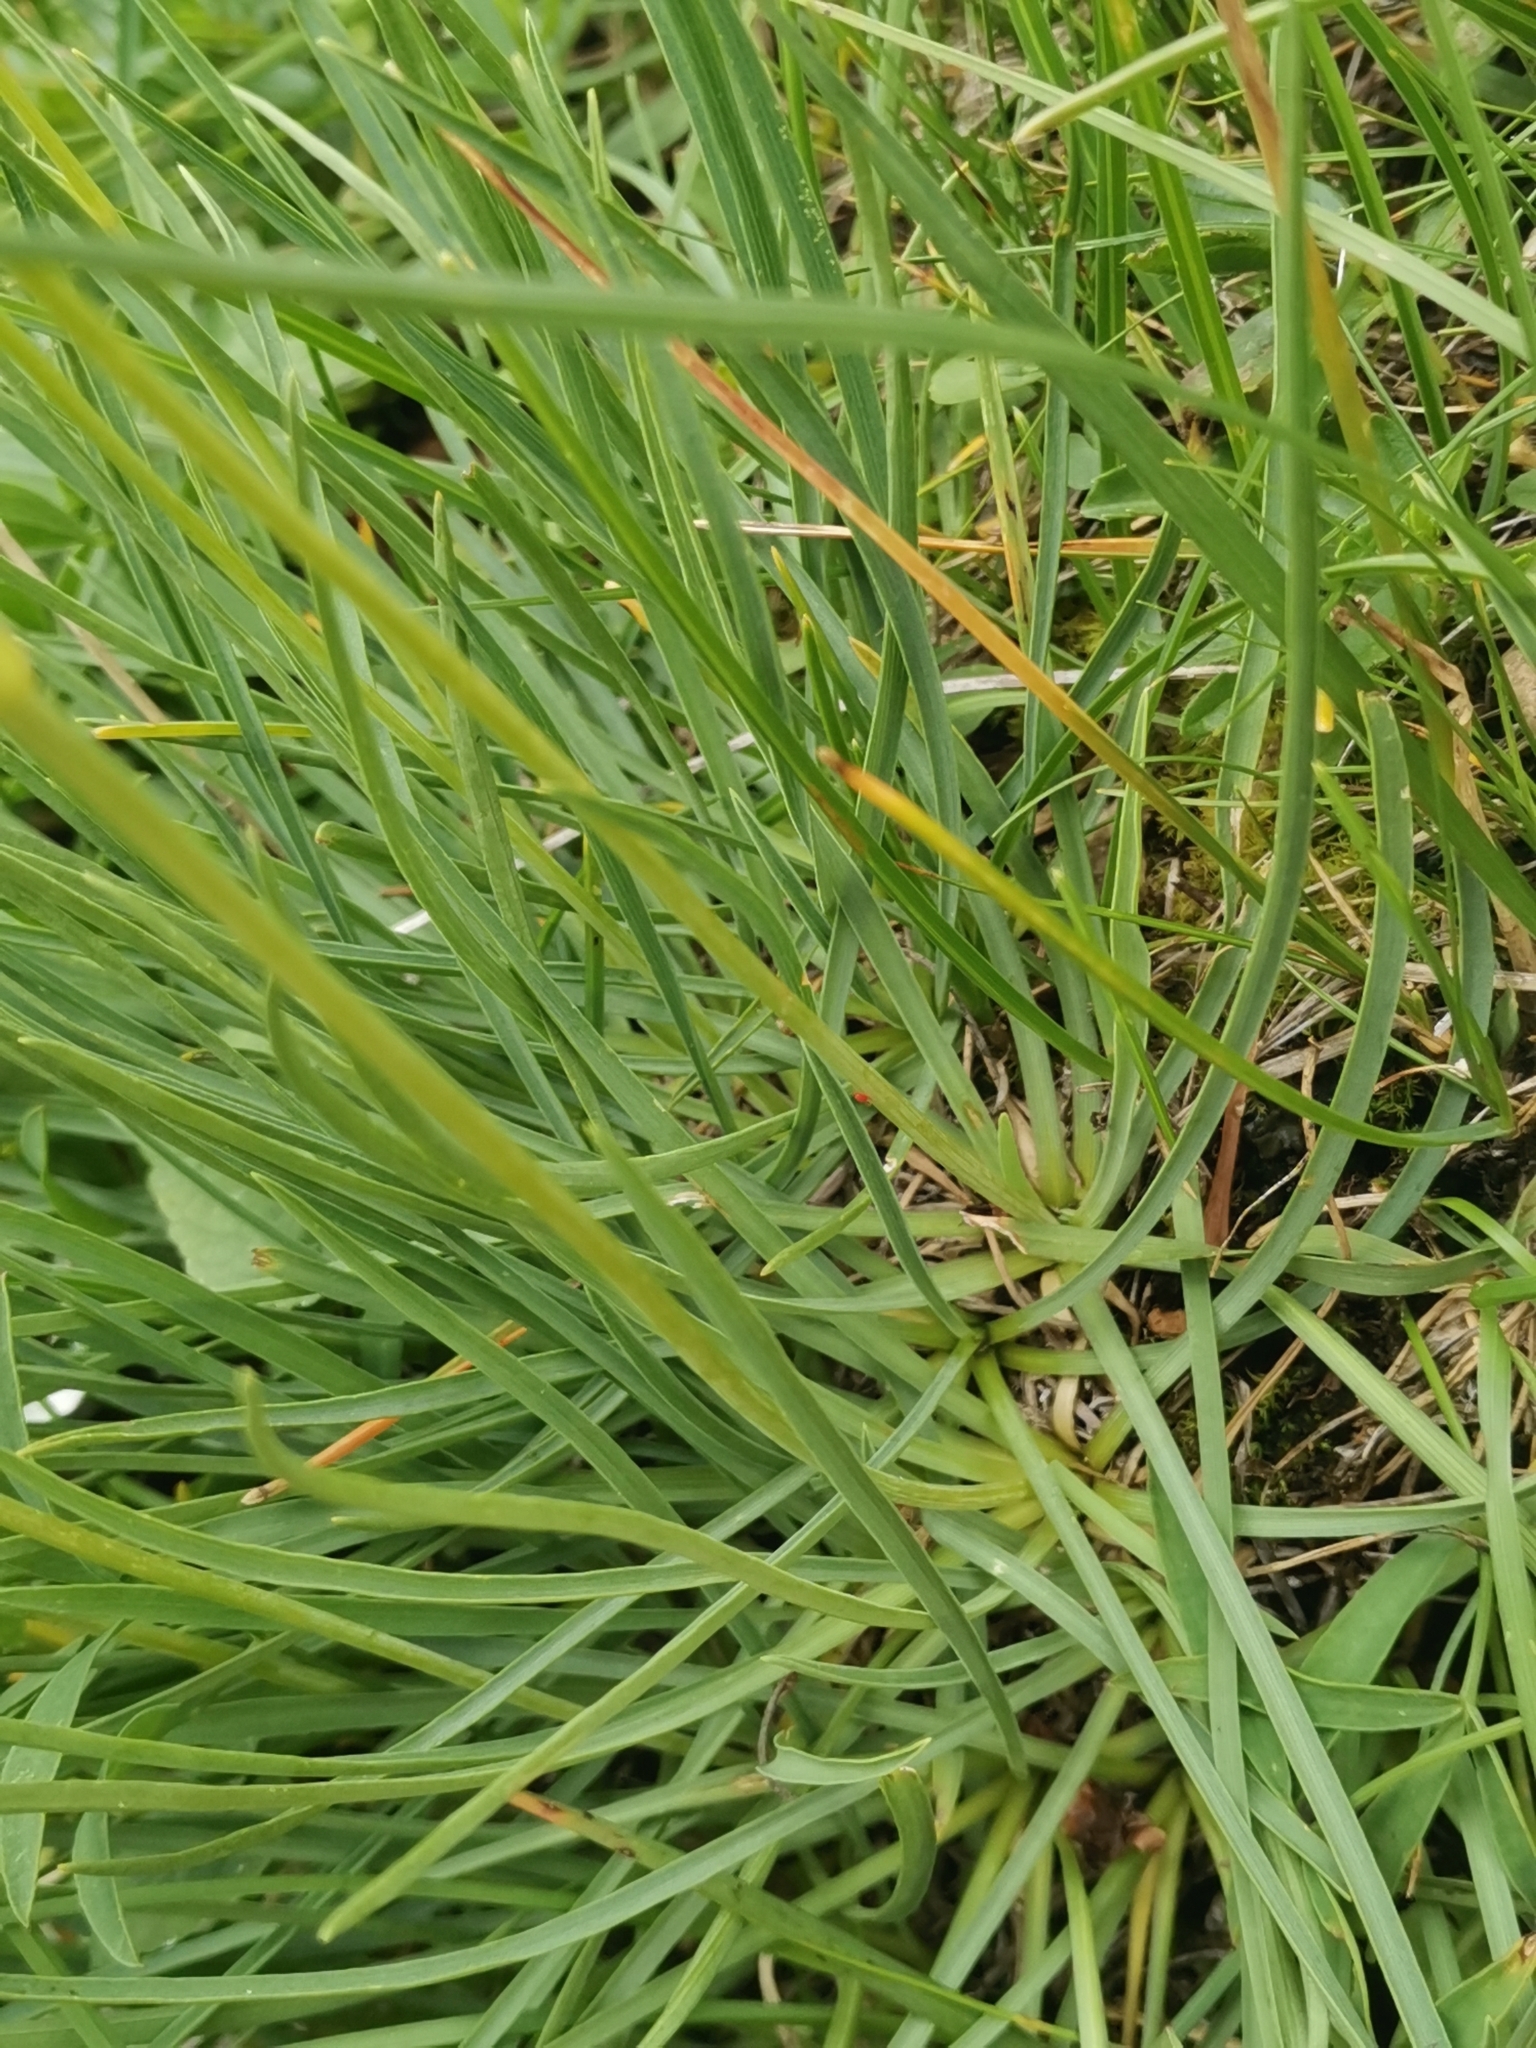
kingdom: Plantae
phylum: Tracheophyta
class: Magnoliopsida
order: Apiales
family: Apiaceae
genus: Bupleurum
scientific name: Bupleurum petraeum
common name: Rock hare's-ear
